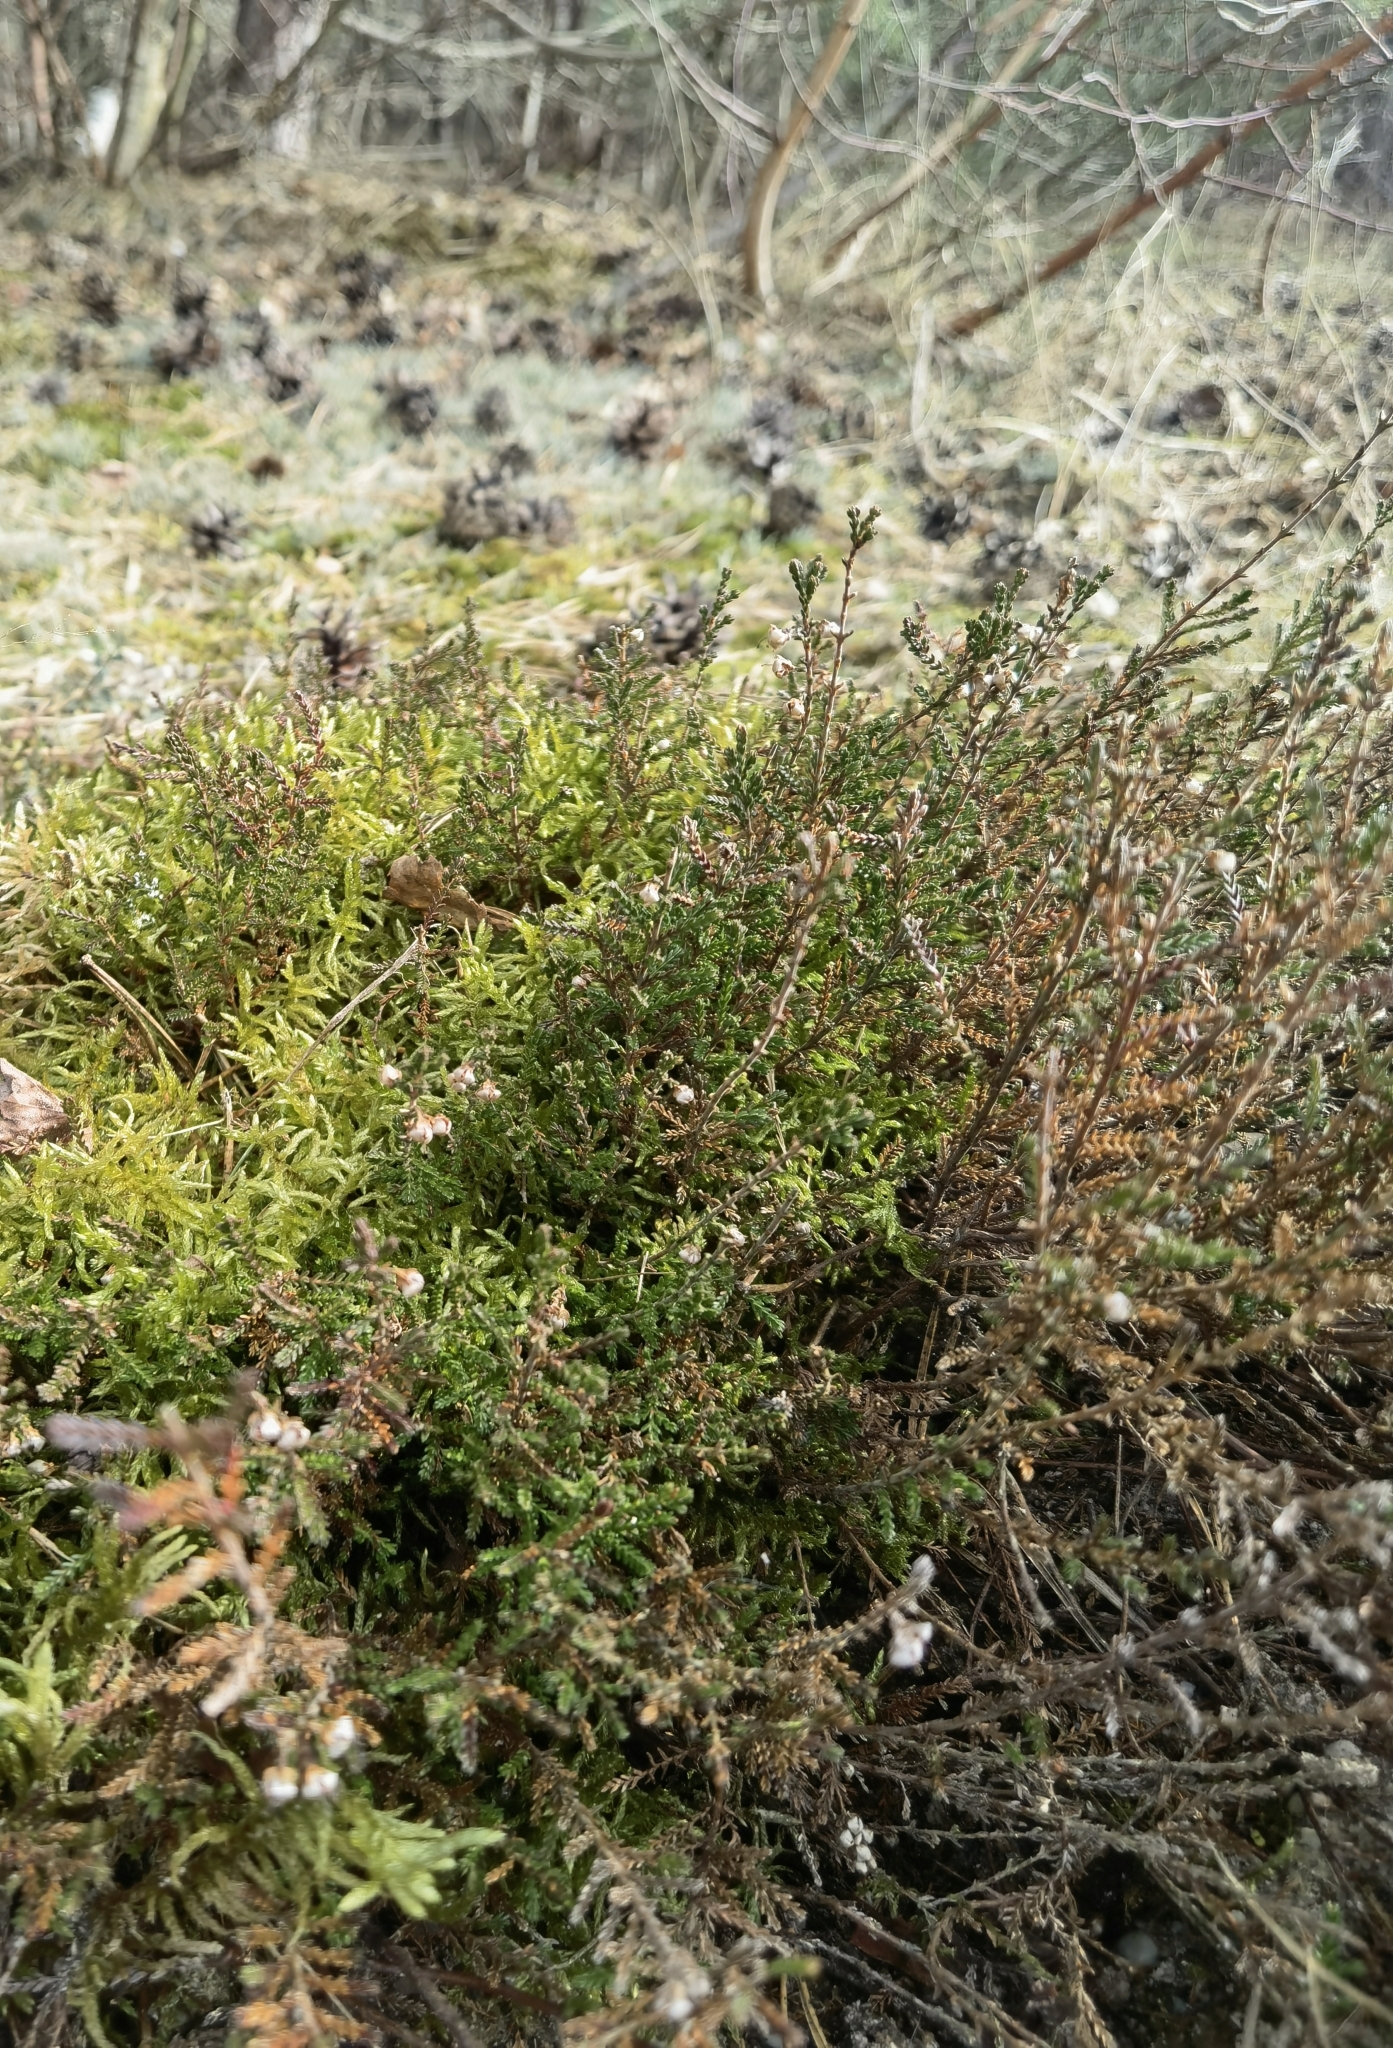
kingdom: Plantae
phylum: Tracheophyta
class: Magnoliopsida
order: Ericales
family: Ericaceae
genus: Calluna
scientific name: Calluna vulgaris
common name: Heather
